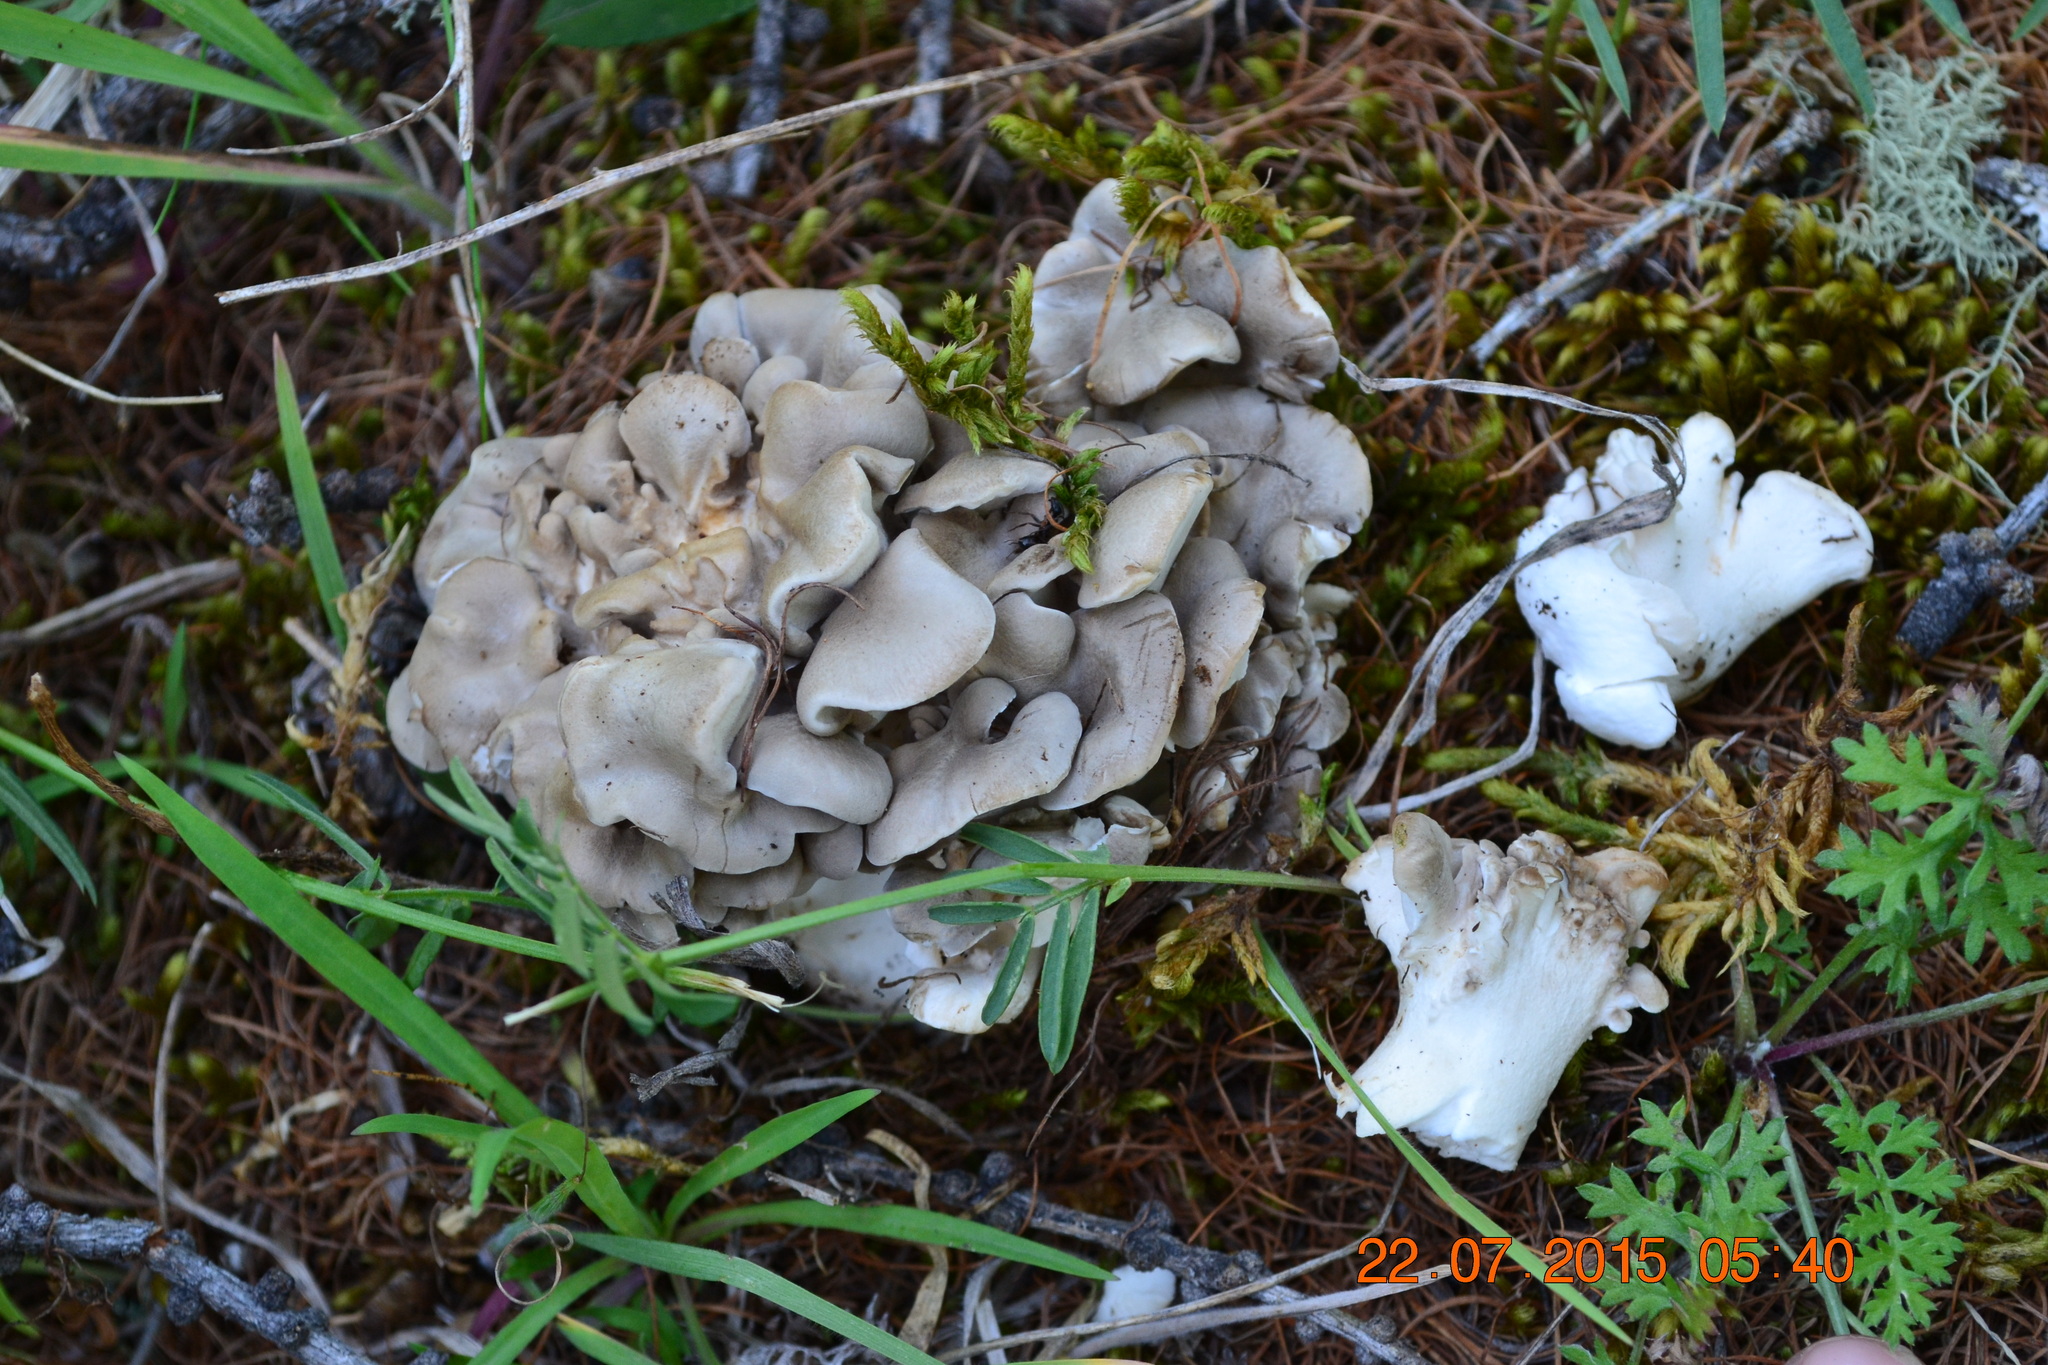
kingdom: Fungi
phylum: Basidiomycota
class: Agaricomycetes
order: Polyporales
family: Grifolaceae
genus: Grifola
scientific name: Grifola frondosa
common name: Hen of the woods
